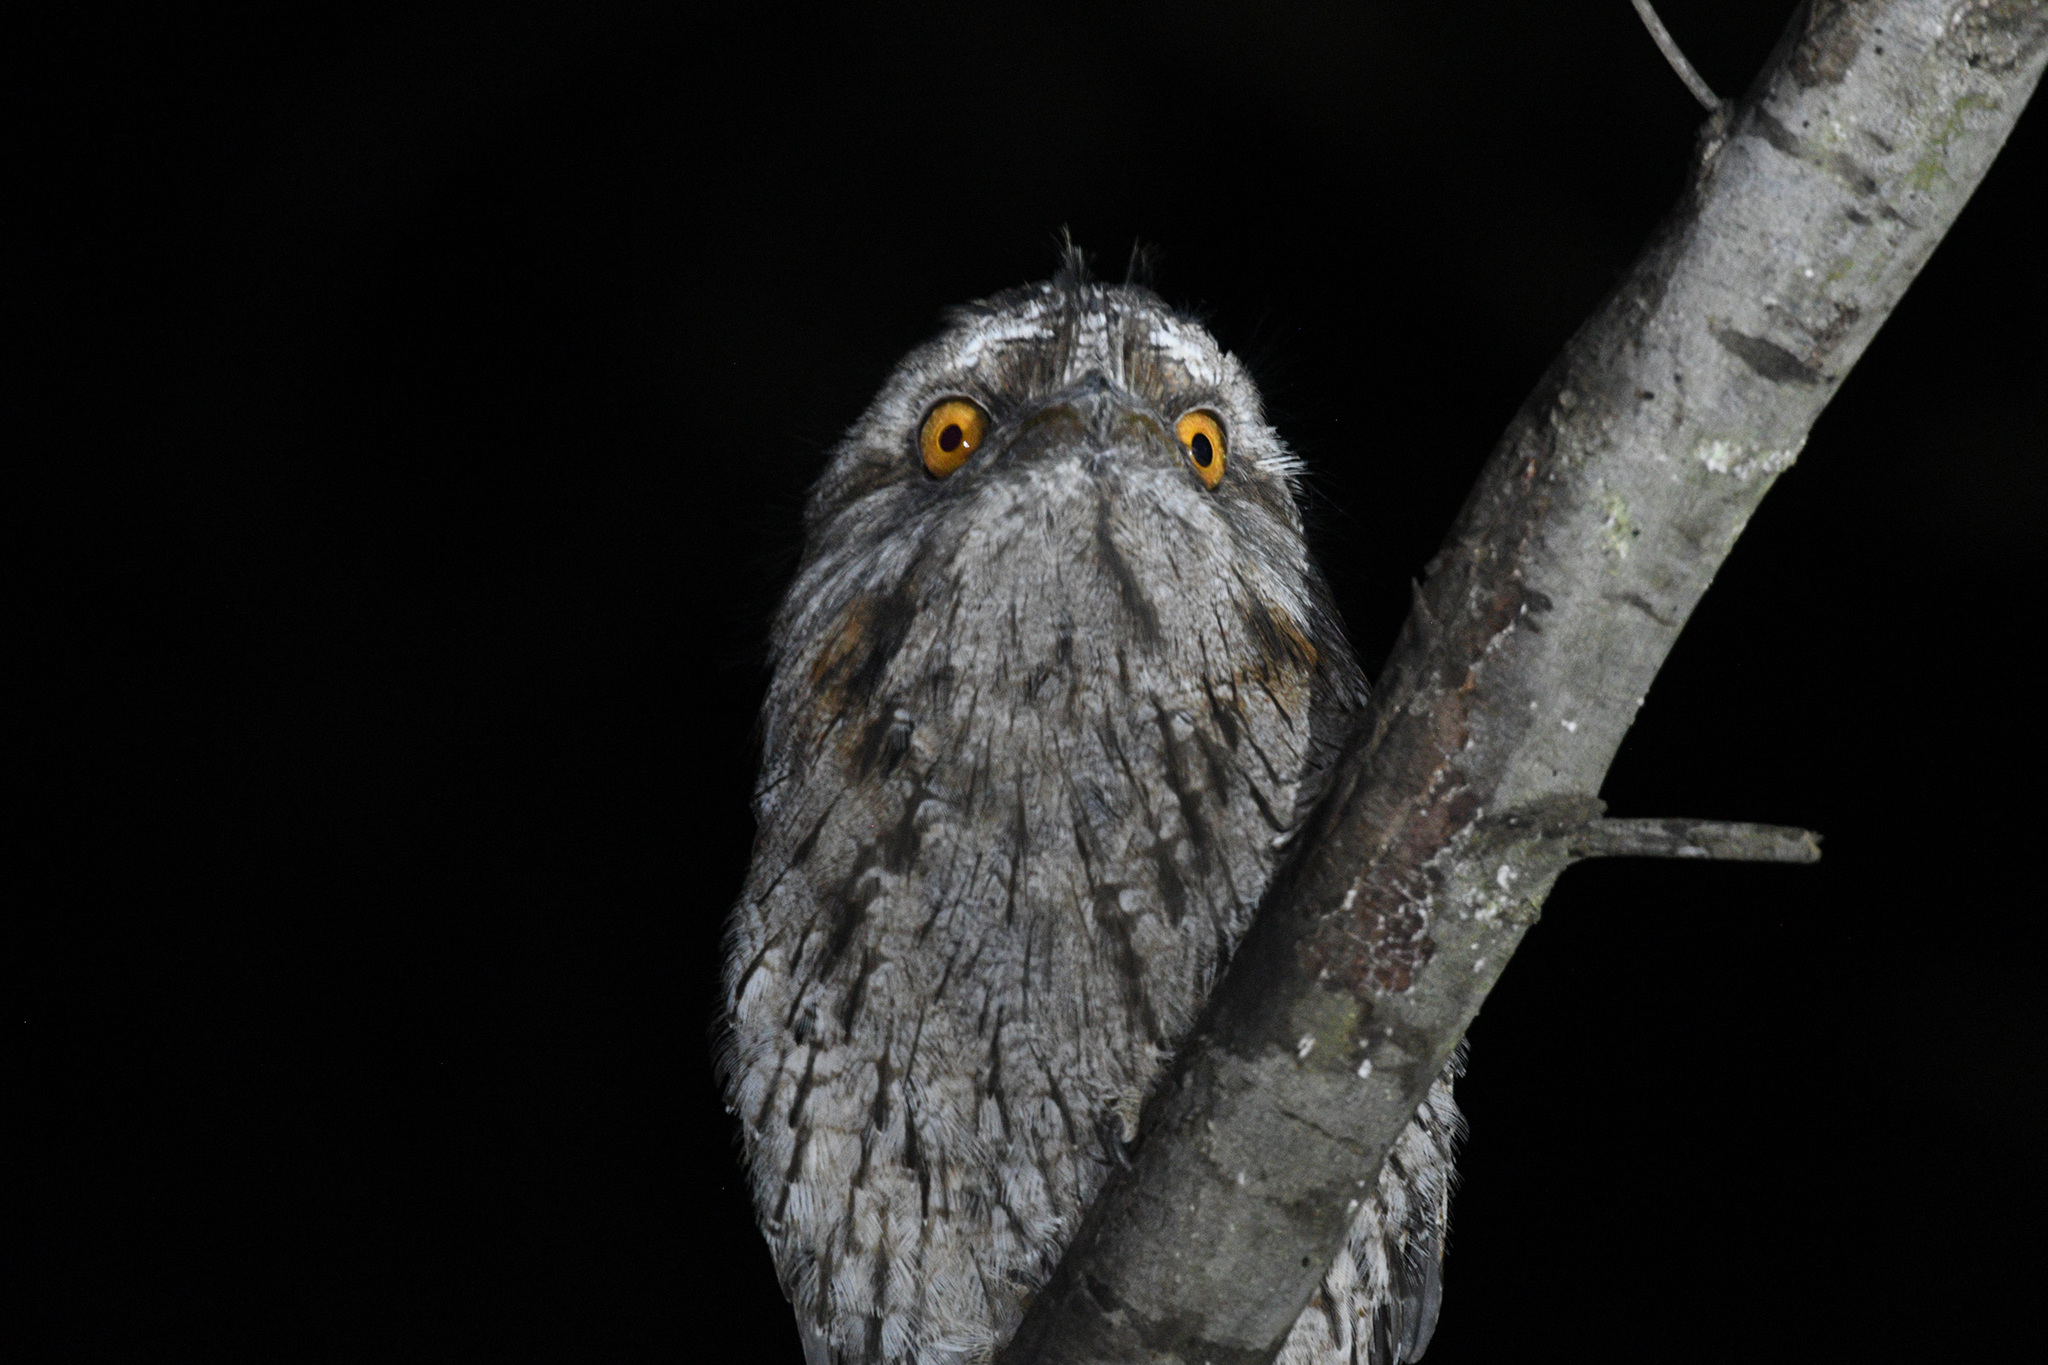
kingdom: Animalia
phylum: Chordata
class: Aves
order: Caprimulgiformes
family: Podargidae
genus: Podargus
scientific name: Podargus strigoides
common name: Tawny frogmouth
